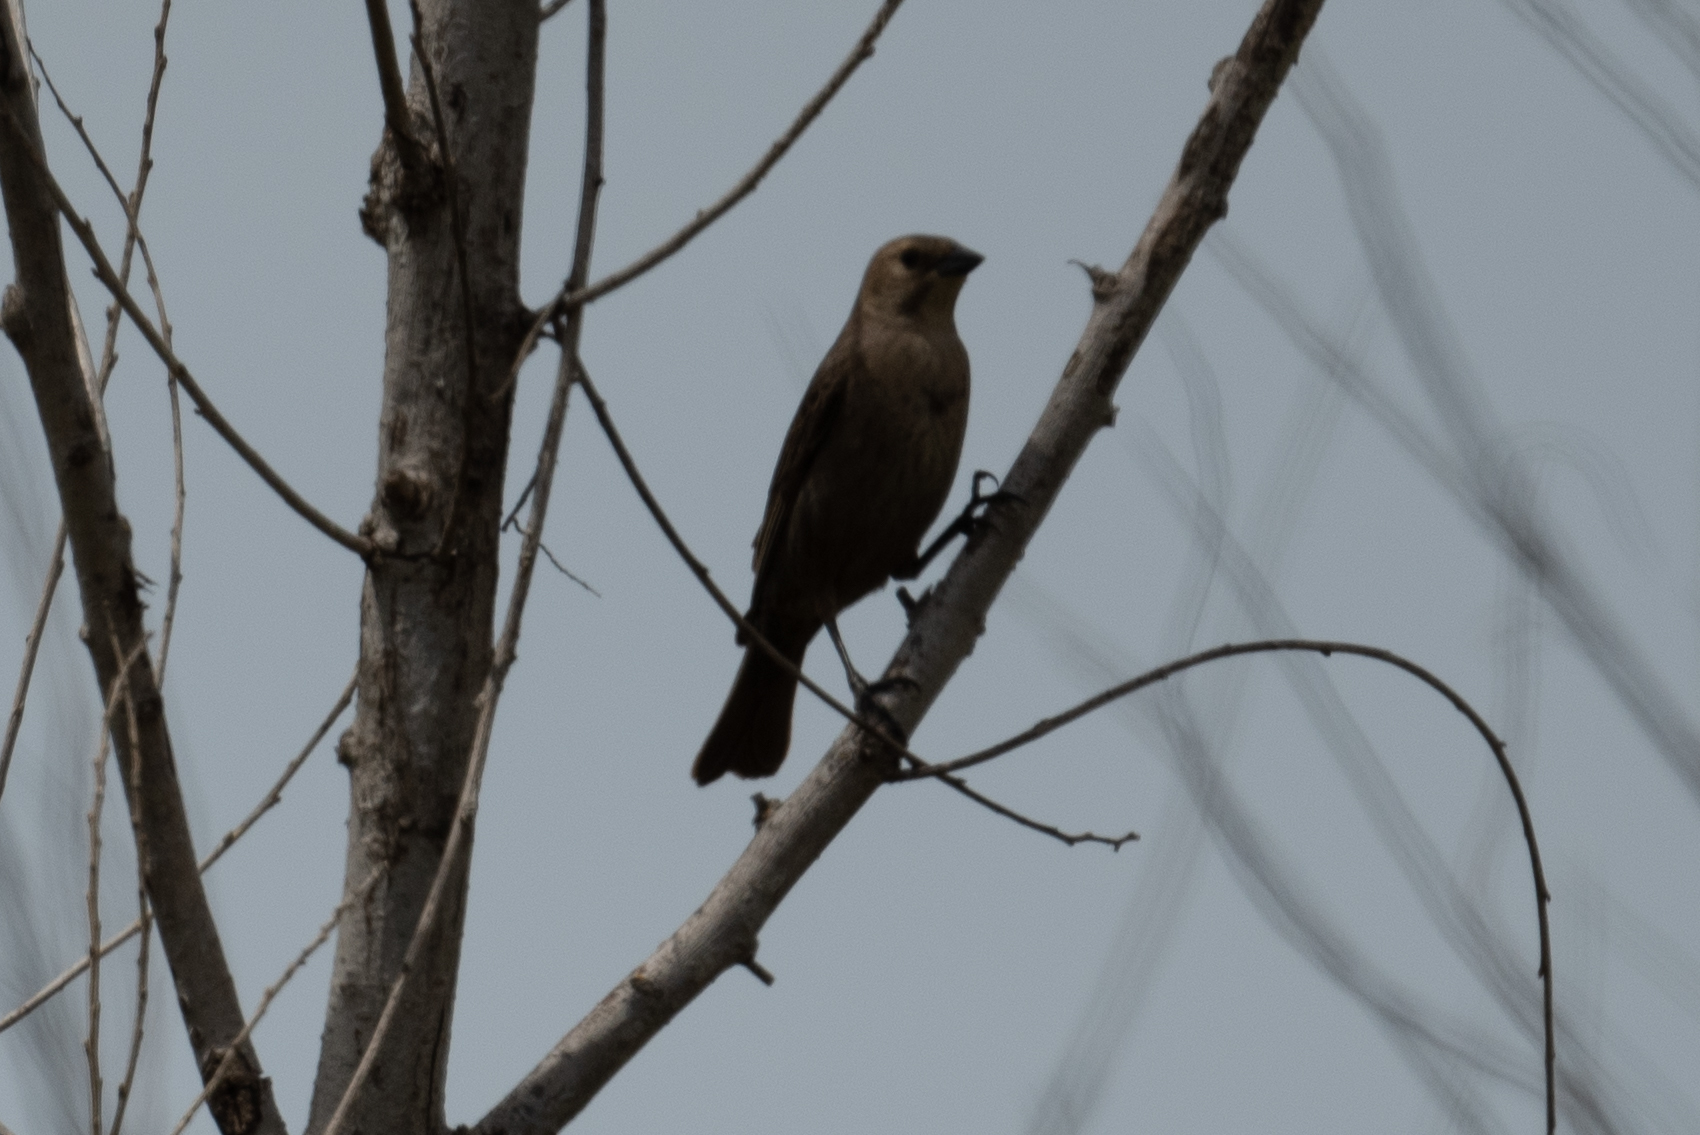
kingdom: Animalia
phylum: Chordata
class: Aves
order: Passeriformes
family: Icteridae
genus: Molothrus
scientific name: Molothrus ater
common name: Brown-headed cowbird
